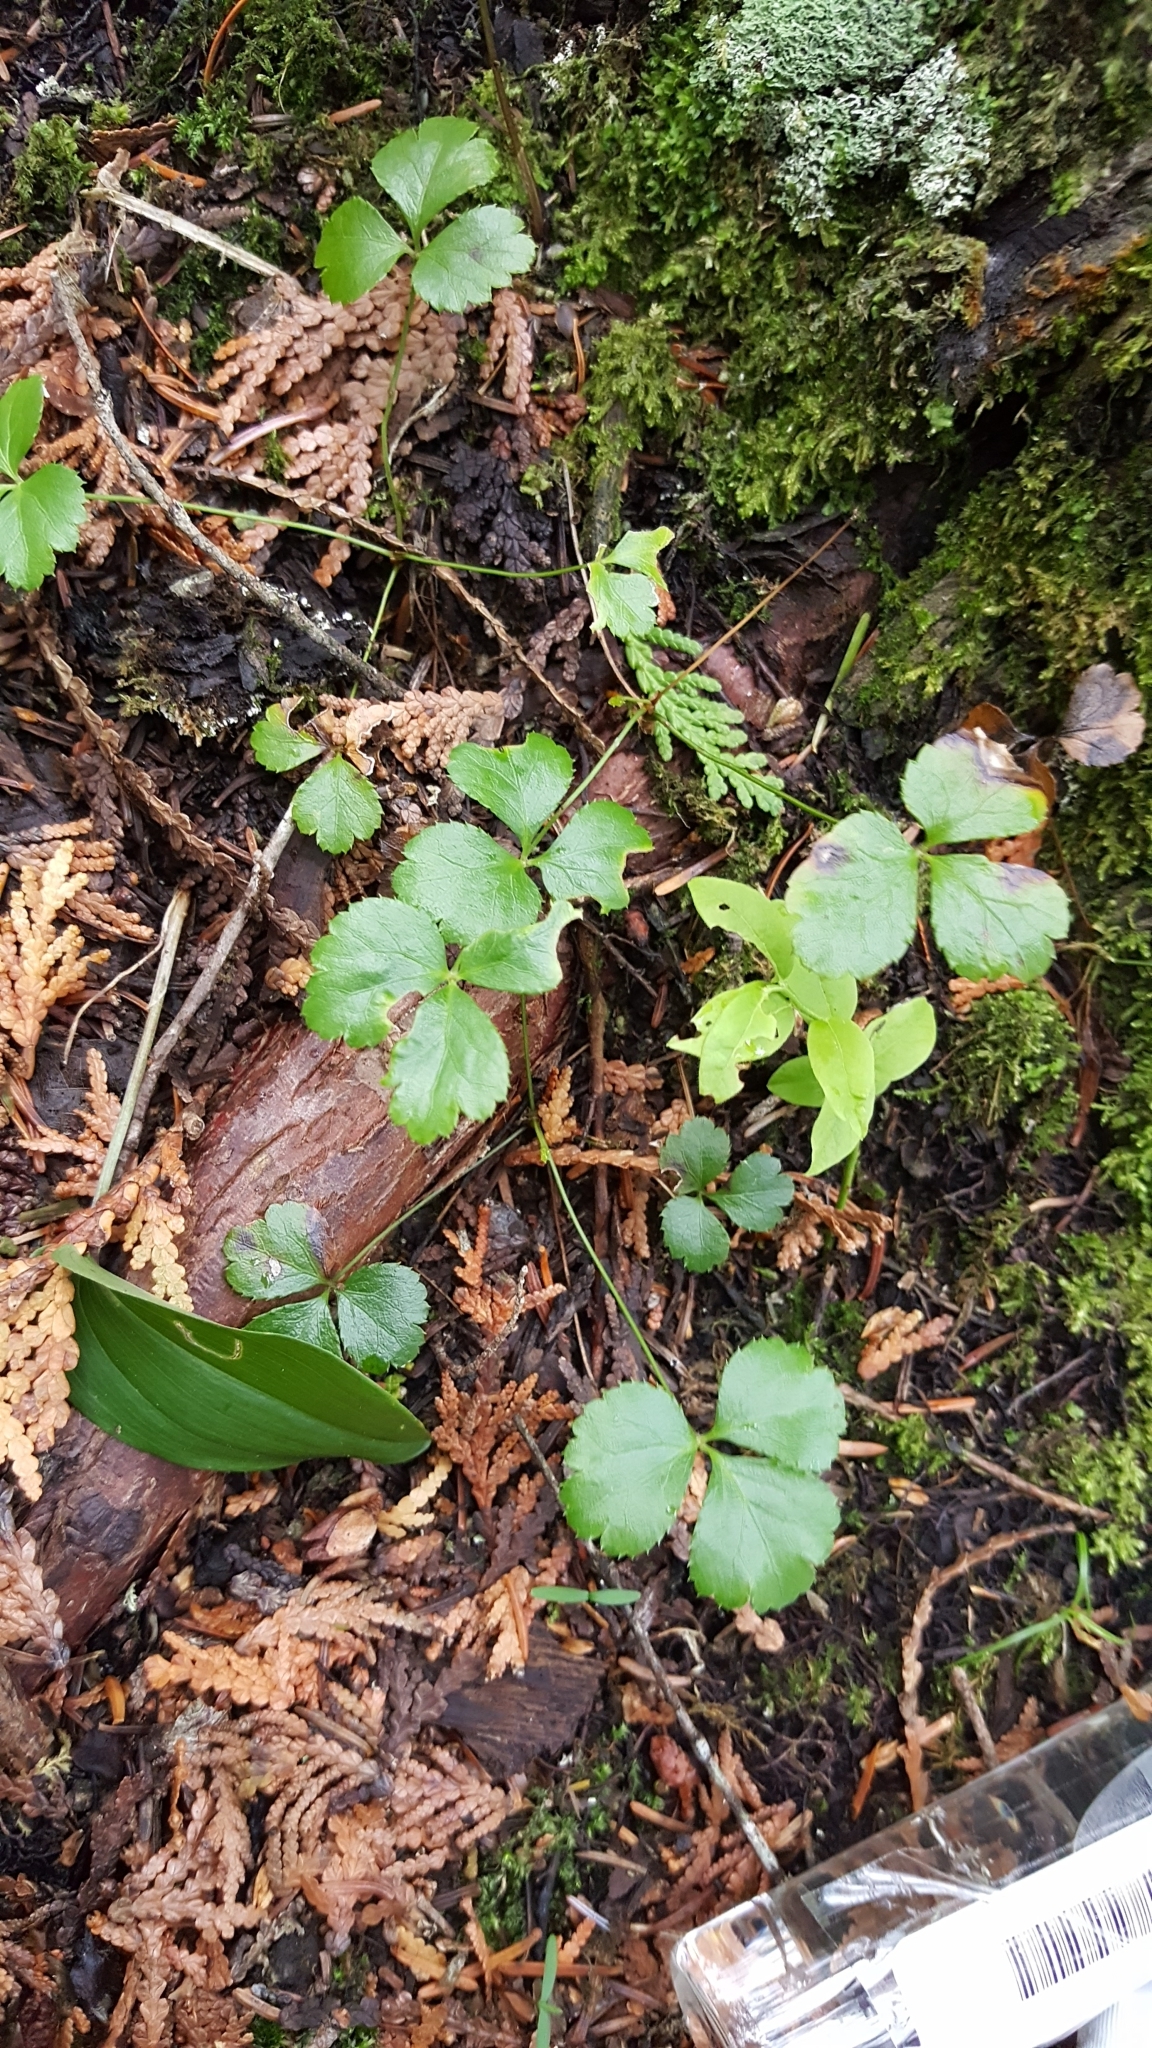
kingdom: Plantae
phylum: Tracheophyta
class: Magnoliopsida
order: Ranunculales
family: Ranunculaceae
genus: Coptis
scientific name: Coptis trifolia
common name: Canker-root
